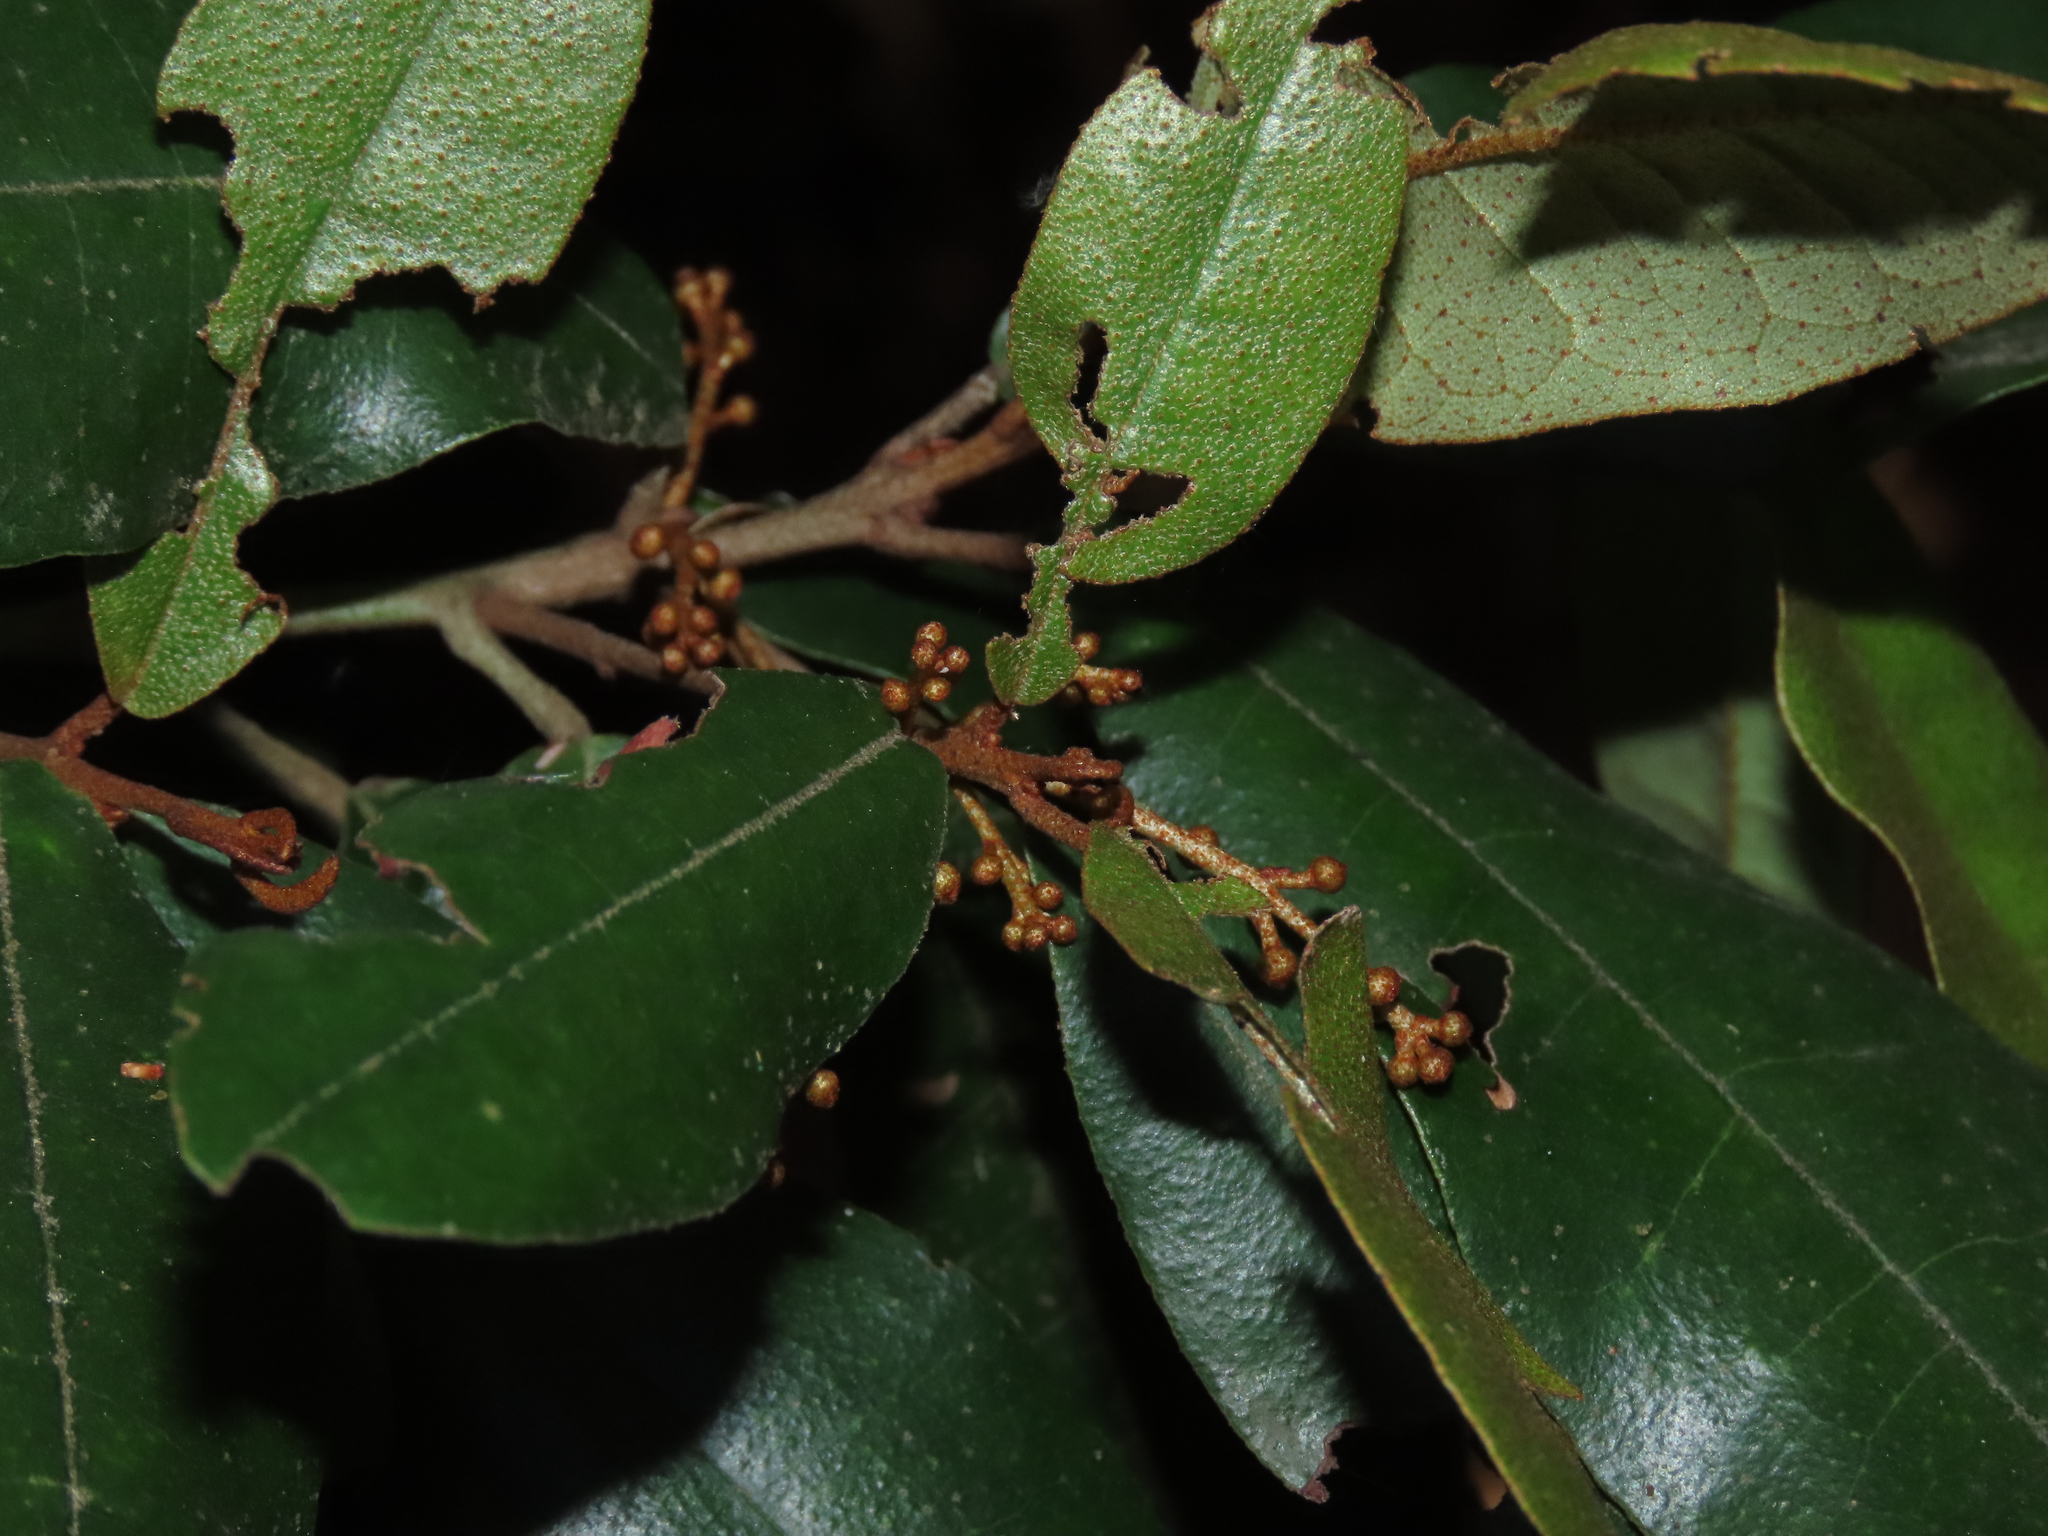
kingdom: Plantae
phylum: Tracheophyta
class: Magnoliopsida
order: Berberidopsidales
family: Aextoxicaceae
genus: Aextoxicon
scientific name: Aextoxicon punctatum
